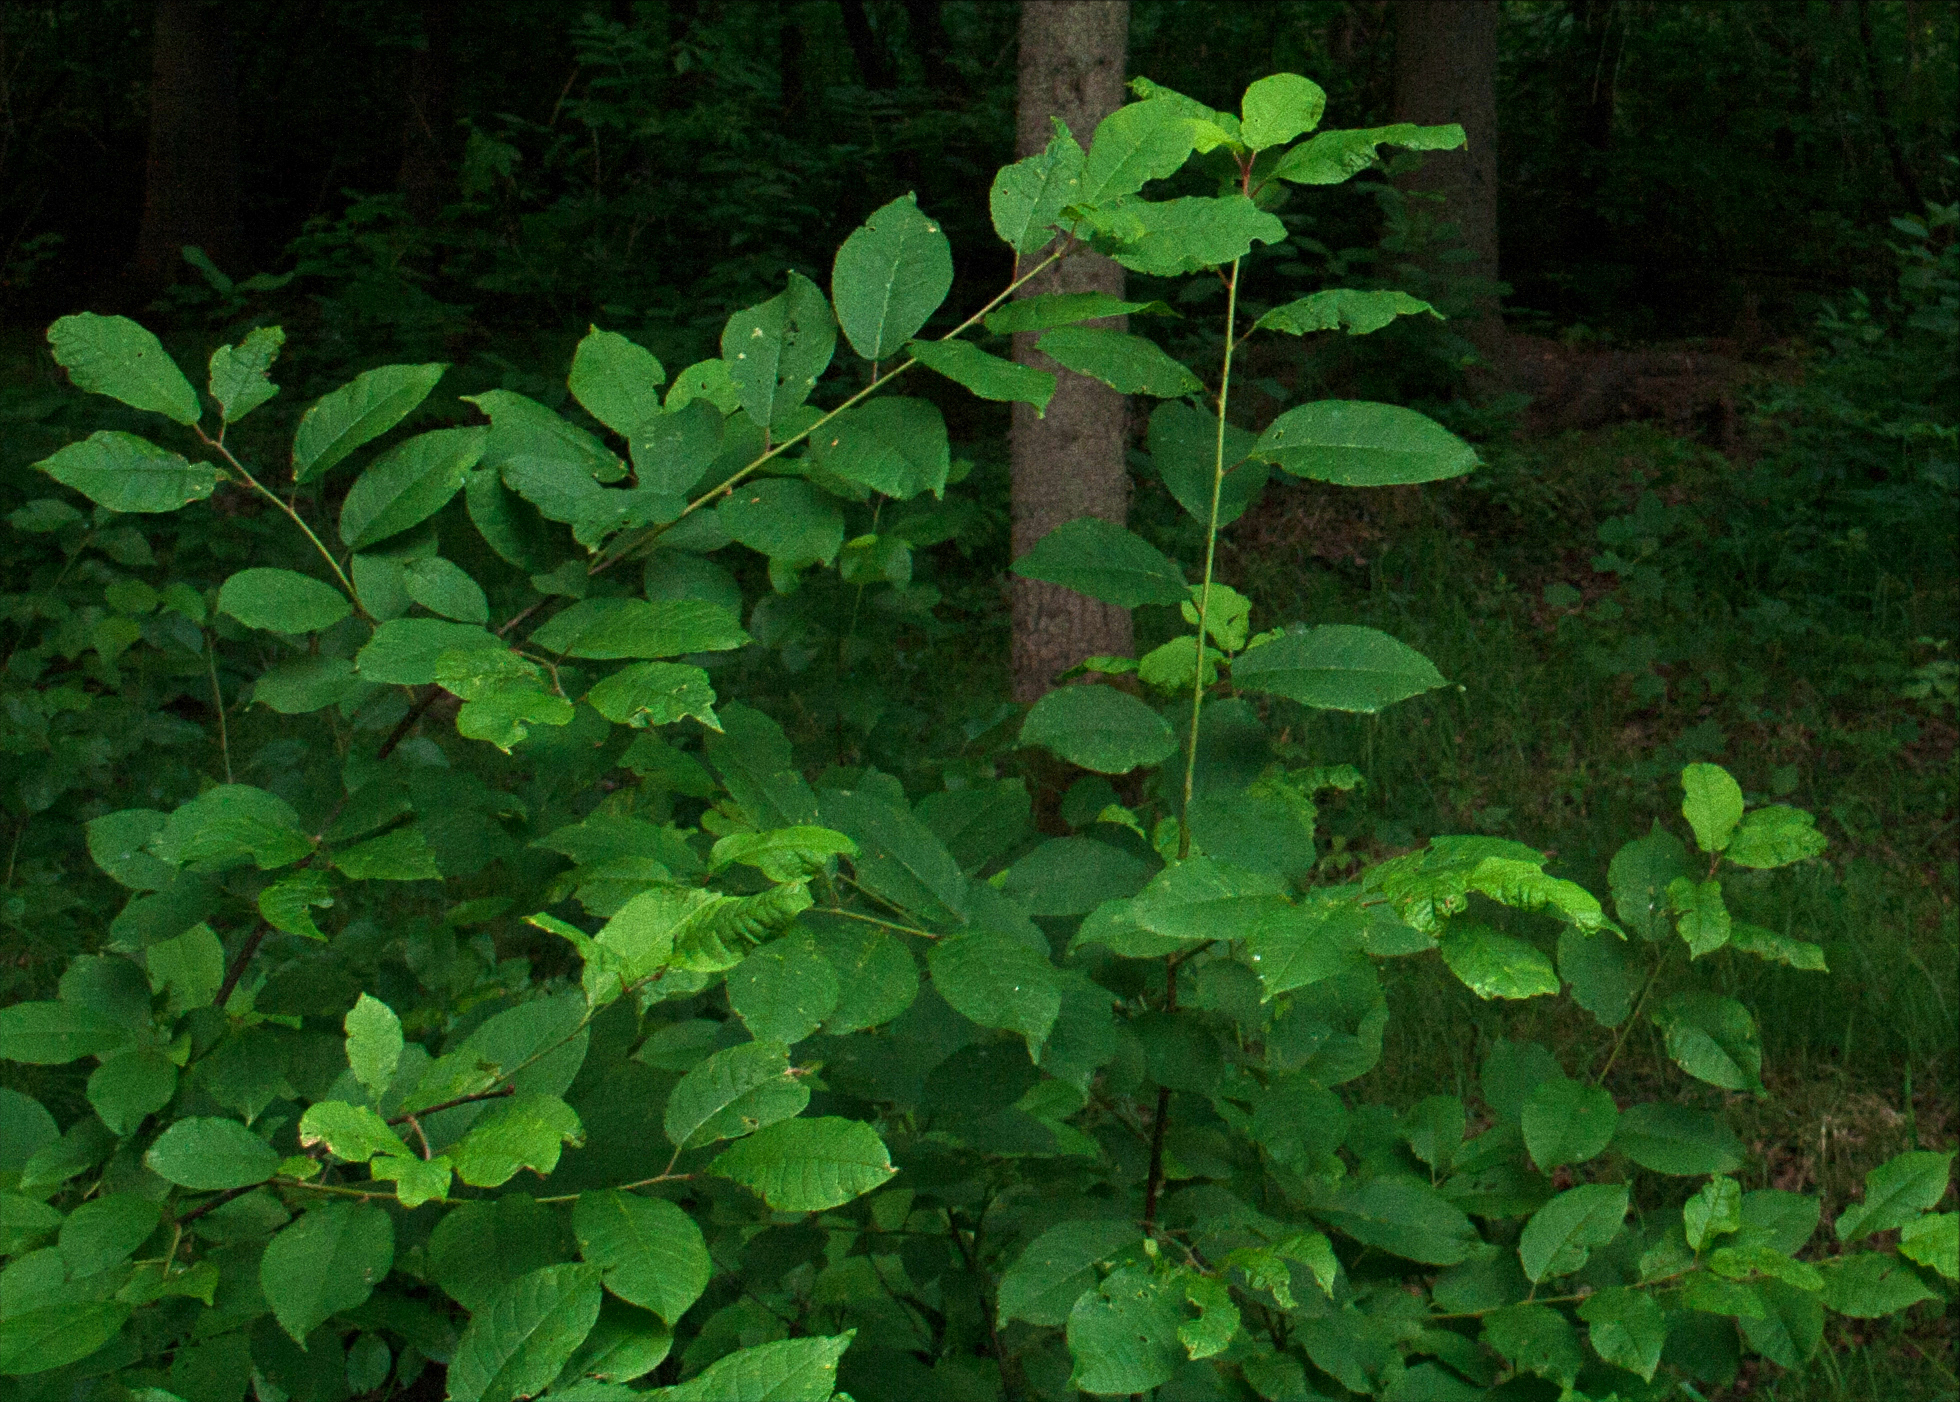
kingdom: Plantae
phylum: Tracheophyta
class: Magnoliopsida
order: Rosales
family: Rosaceae
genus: Prunus
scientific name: Prunus padus
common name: Bird cherry
